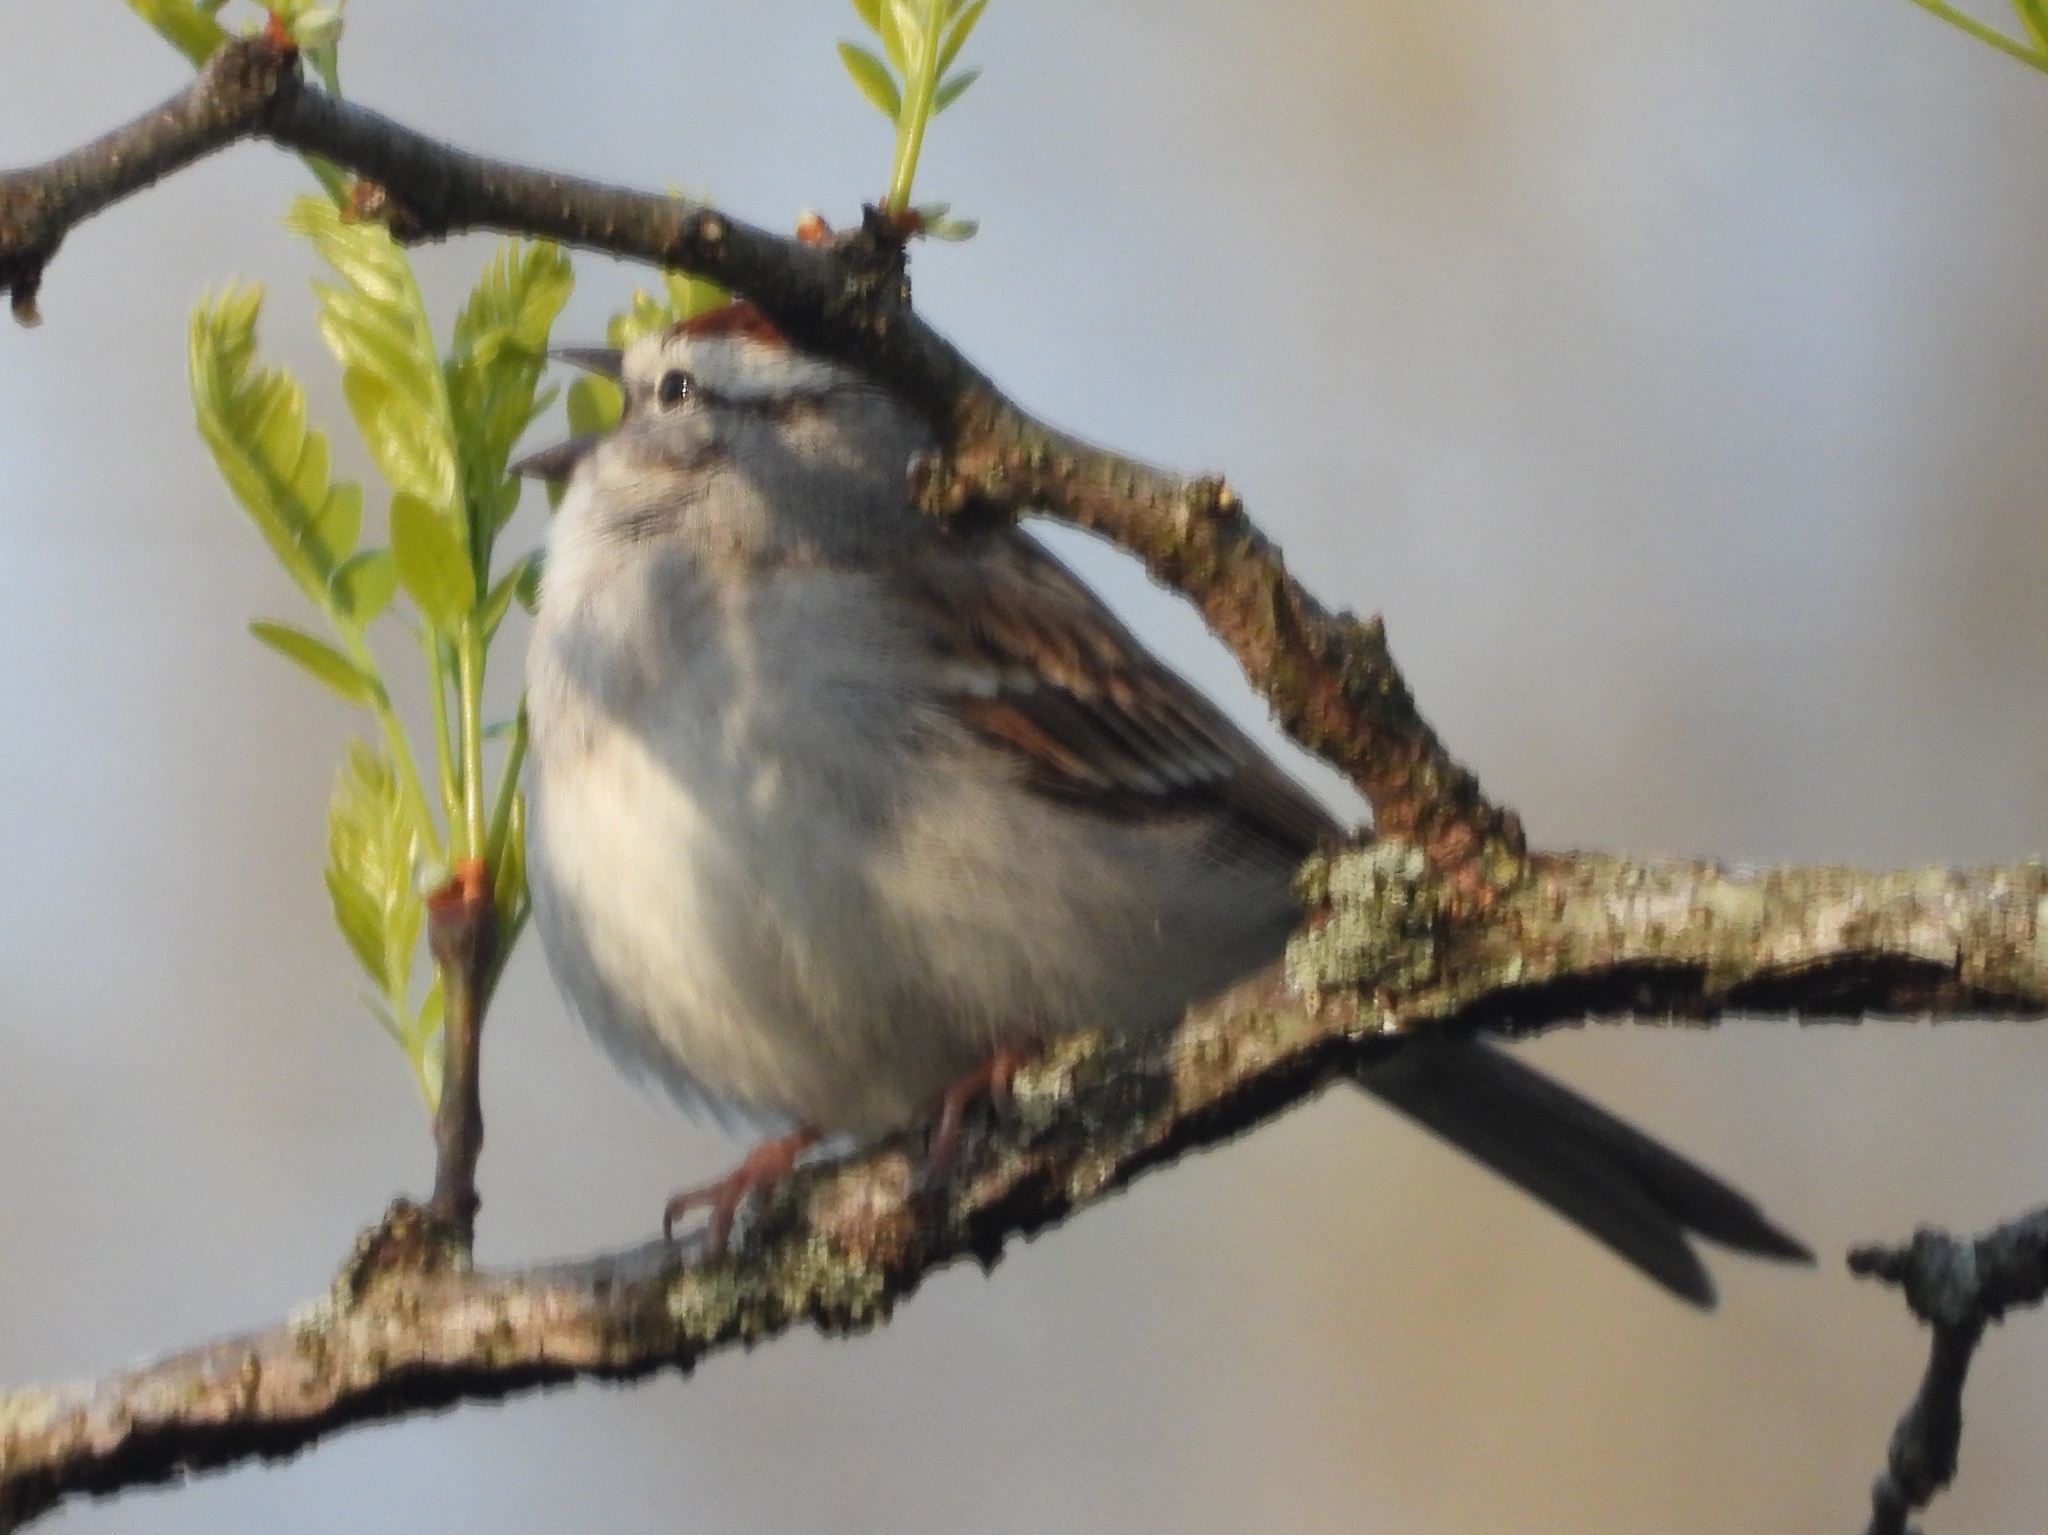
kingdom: Animalia
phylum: Chordata
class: Aves
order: Passeriformes
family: Passerellidae
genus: Spizella
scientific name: Spizella passerina
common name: Chipping sparrow
